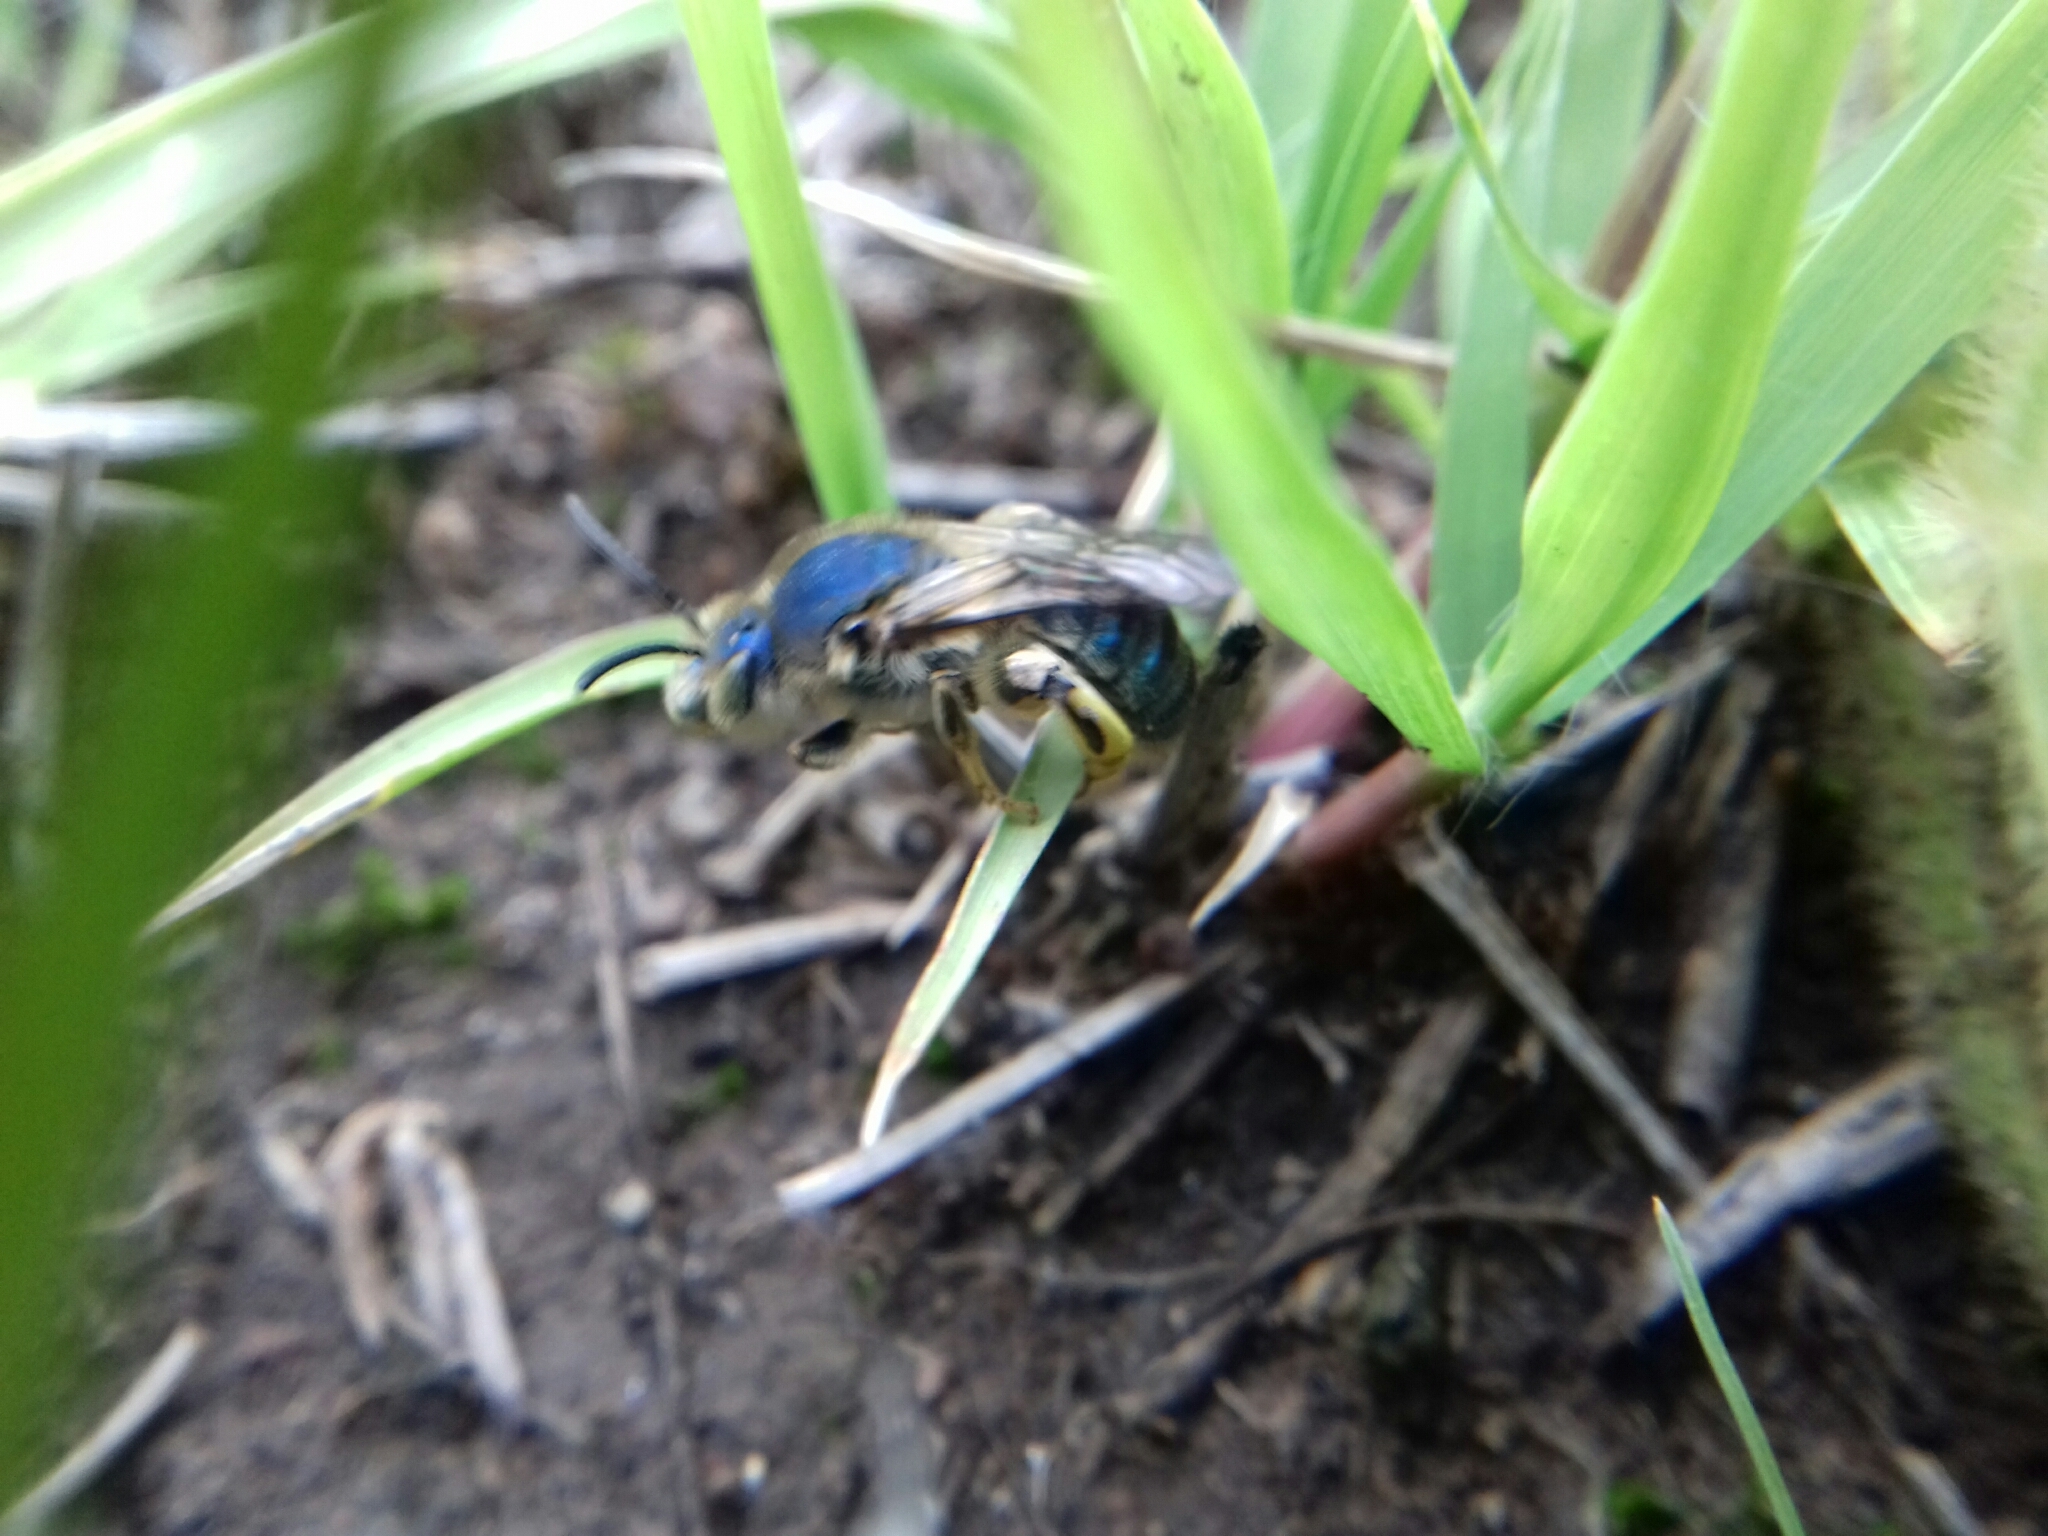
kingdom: Animalia
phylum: Arthropoda
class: Insecta
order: Hymenoptera
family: Halictidae
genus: Paragapostemon
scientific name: Paragapostemon coelestinus
